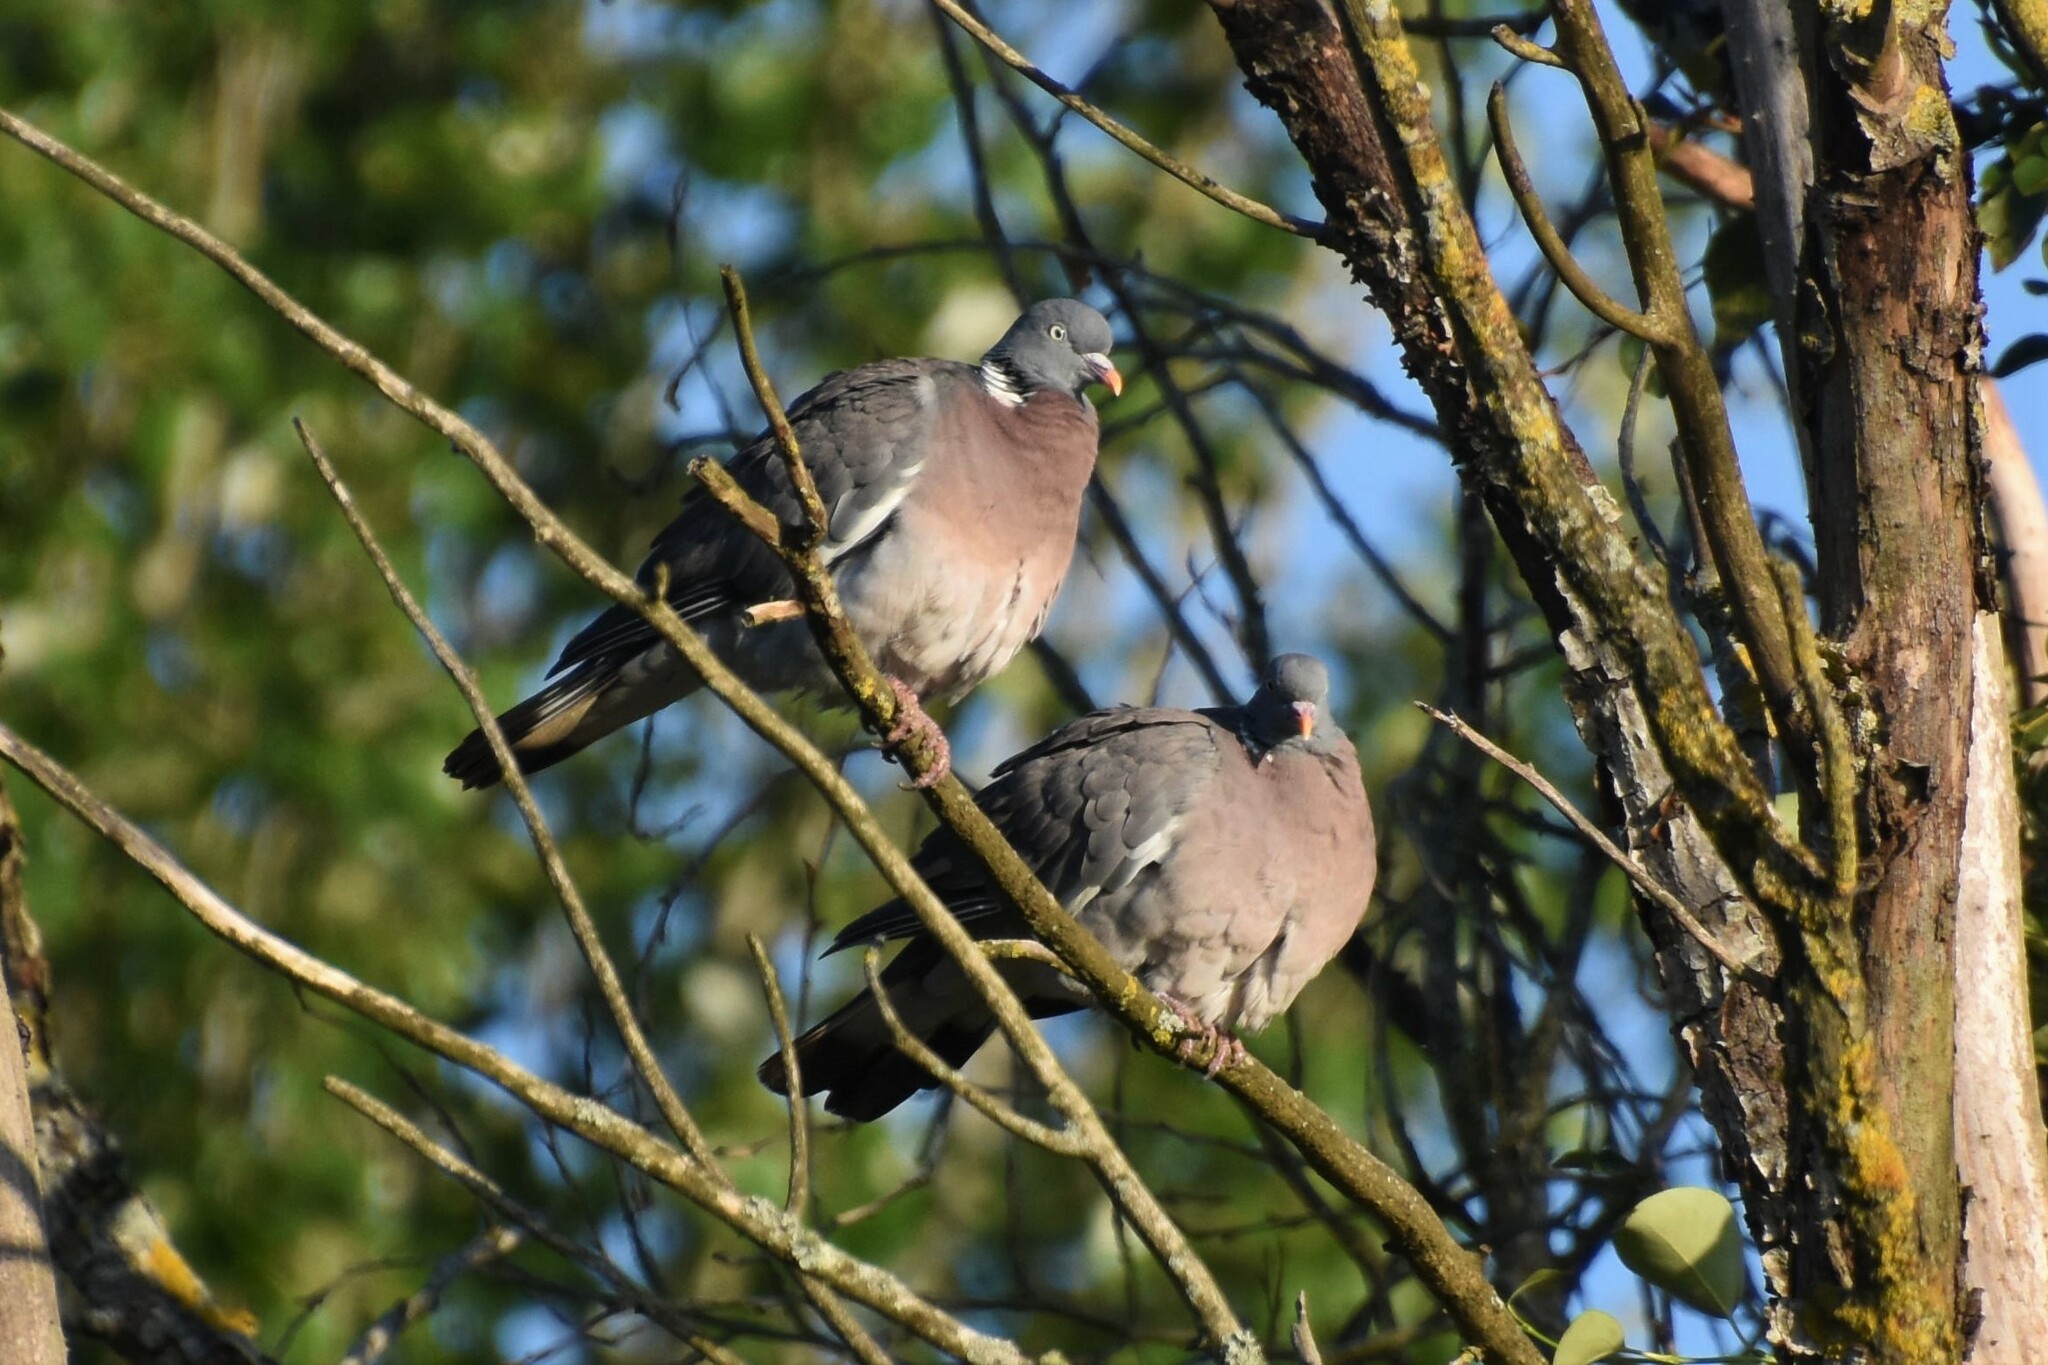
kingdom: Animalia
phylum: Chordata
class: Aves
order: Columbiformes
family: Columbidae
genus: Columba
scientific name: Columba palumbus
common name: Common wood pigeon
